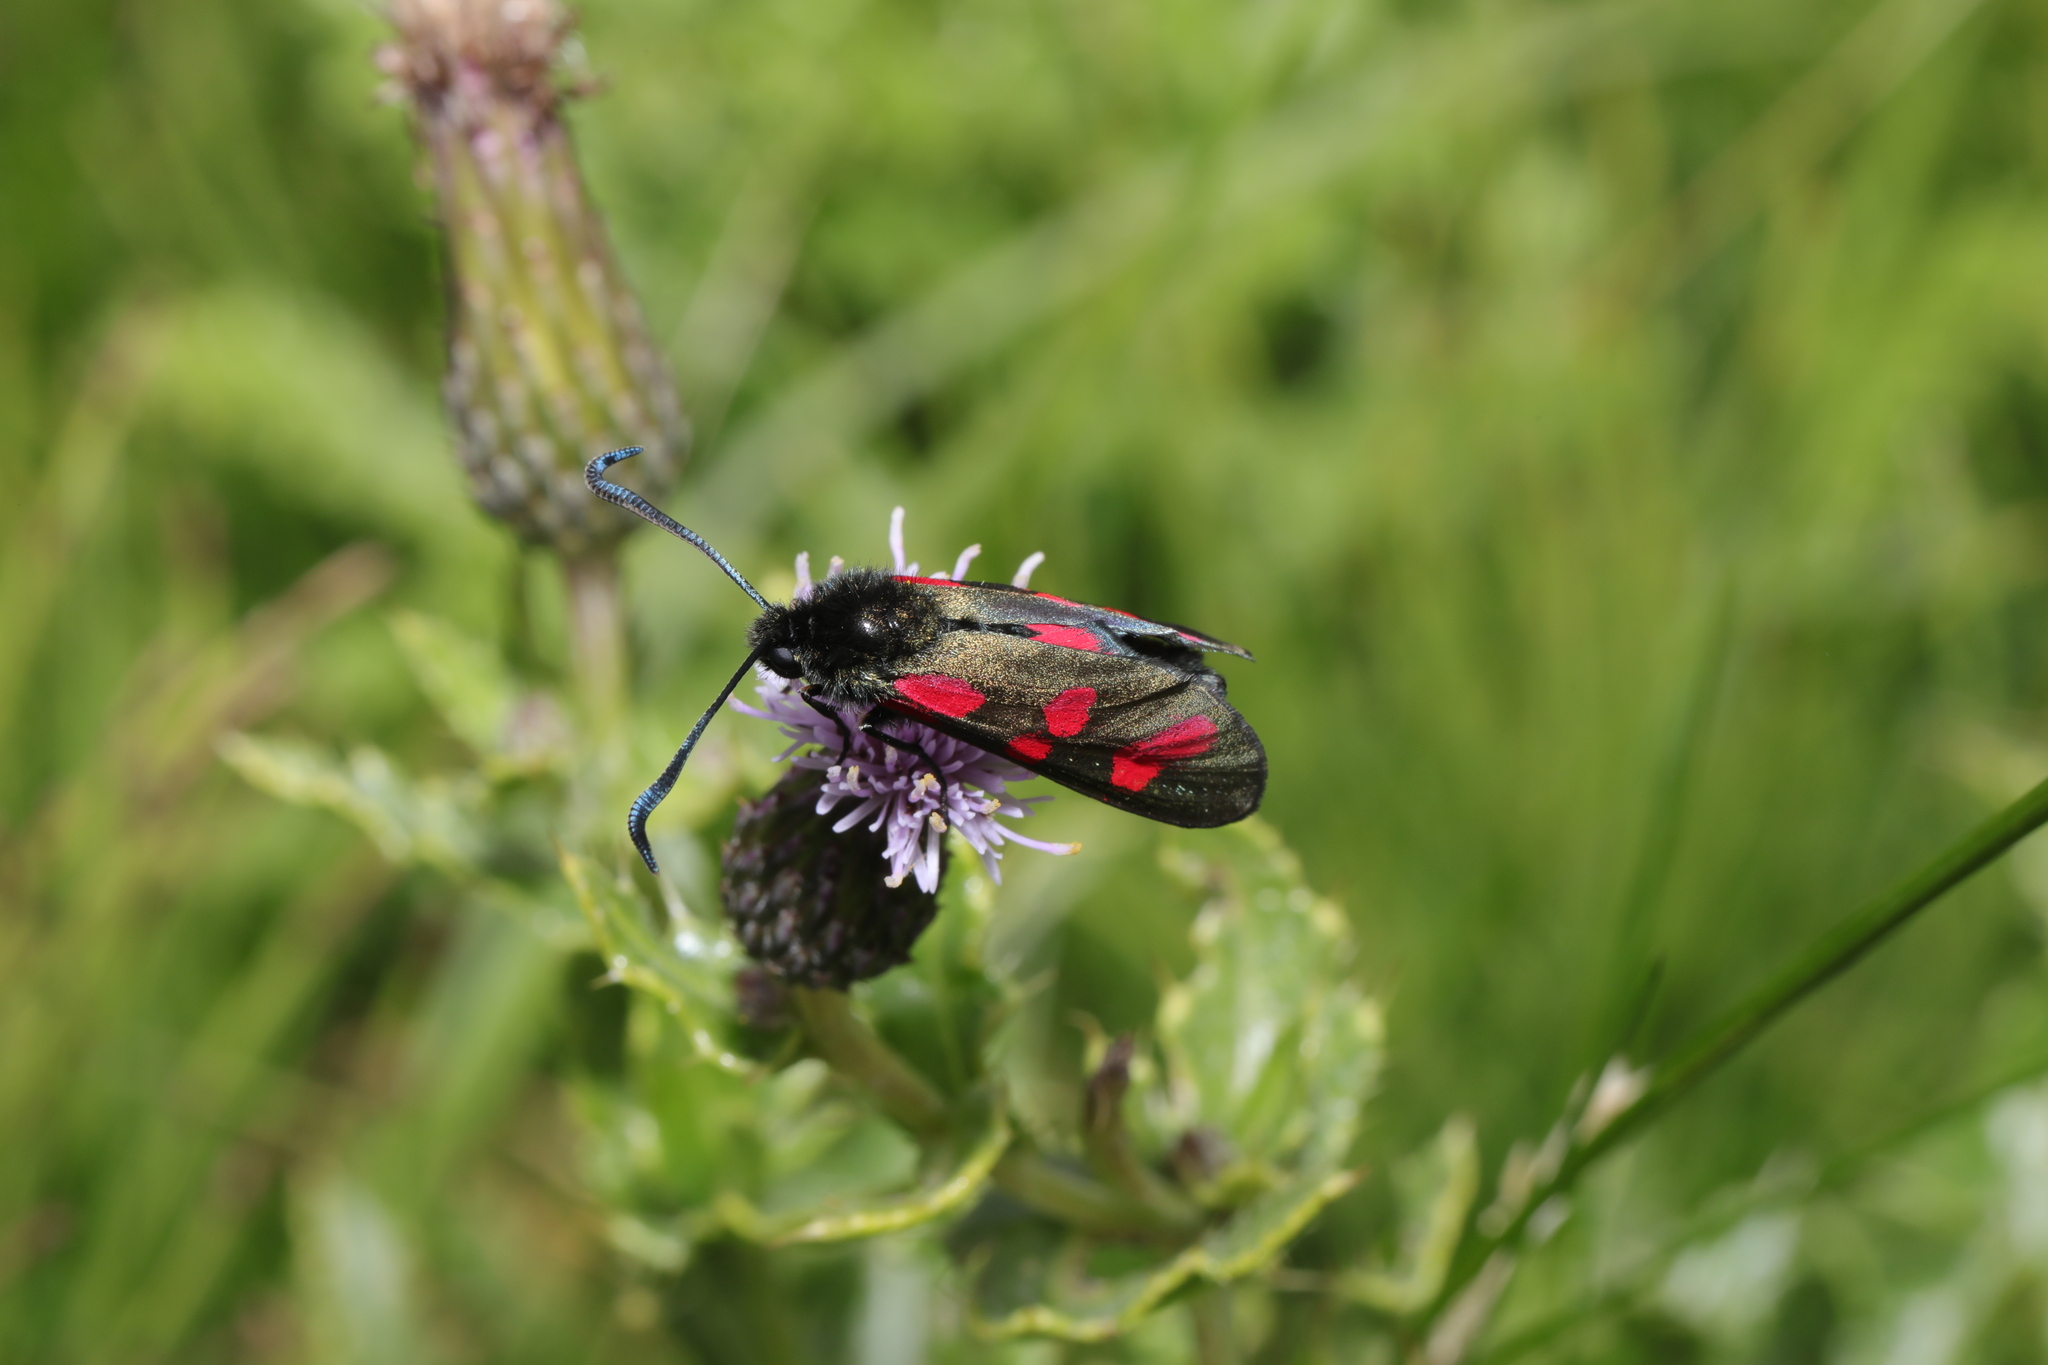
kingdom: Animalia
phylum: Arthropoda
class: Insecta
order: Lepidoptera
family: Zygaenidae
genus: Zygaena
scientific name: Zygaena filipendulae
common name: Six-spot burnet
